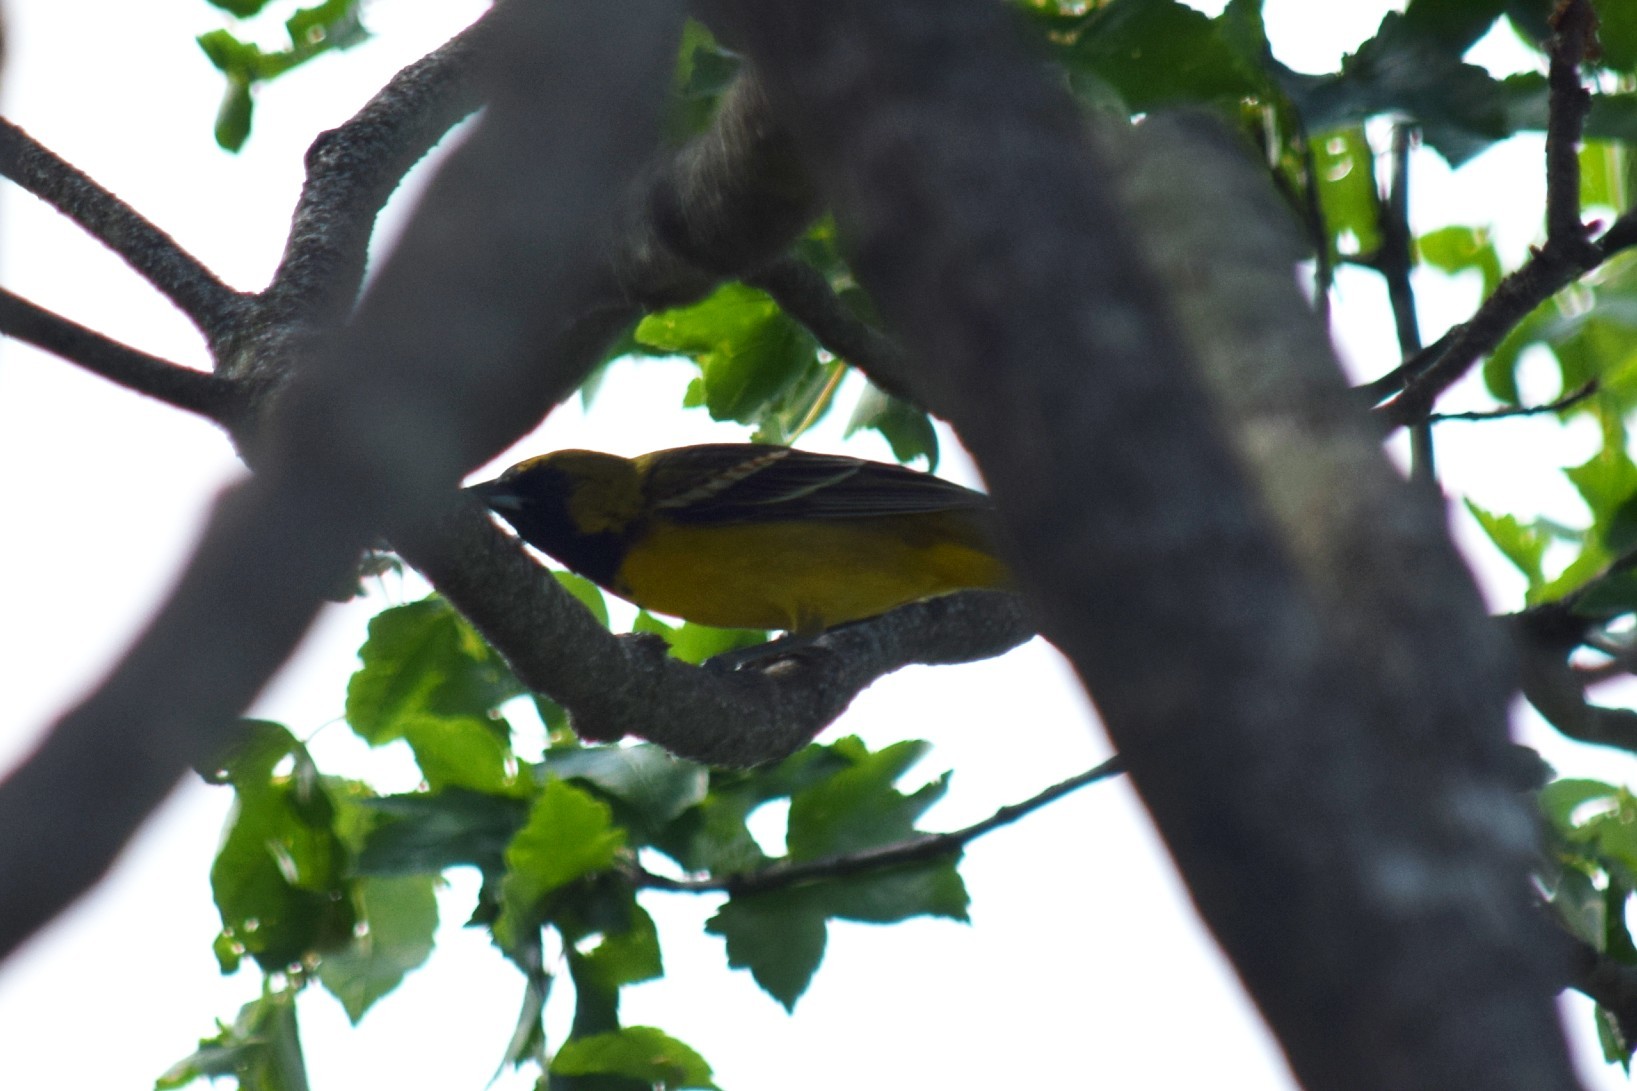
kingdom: Animalia
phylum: Chordata
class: Aves
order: Passeriformes
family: Icteridae
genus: Icterus
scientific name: Icterus spurius
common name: Orchard oriole
